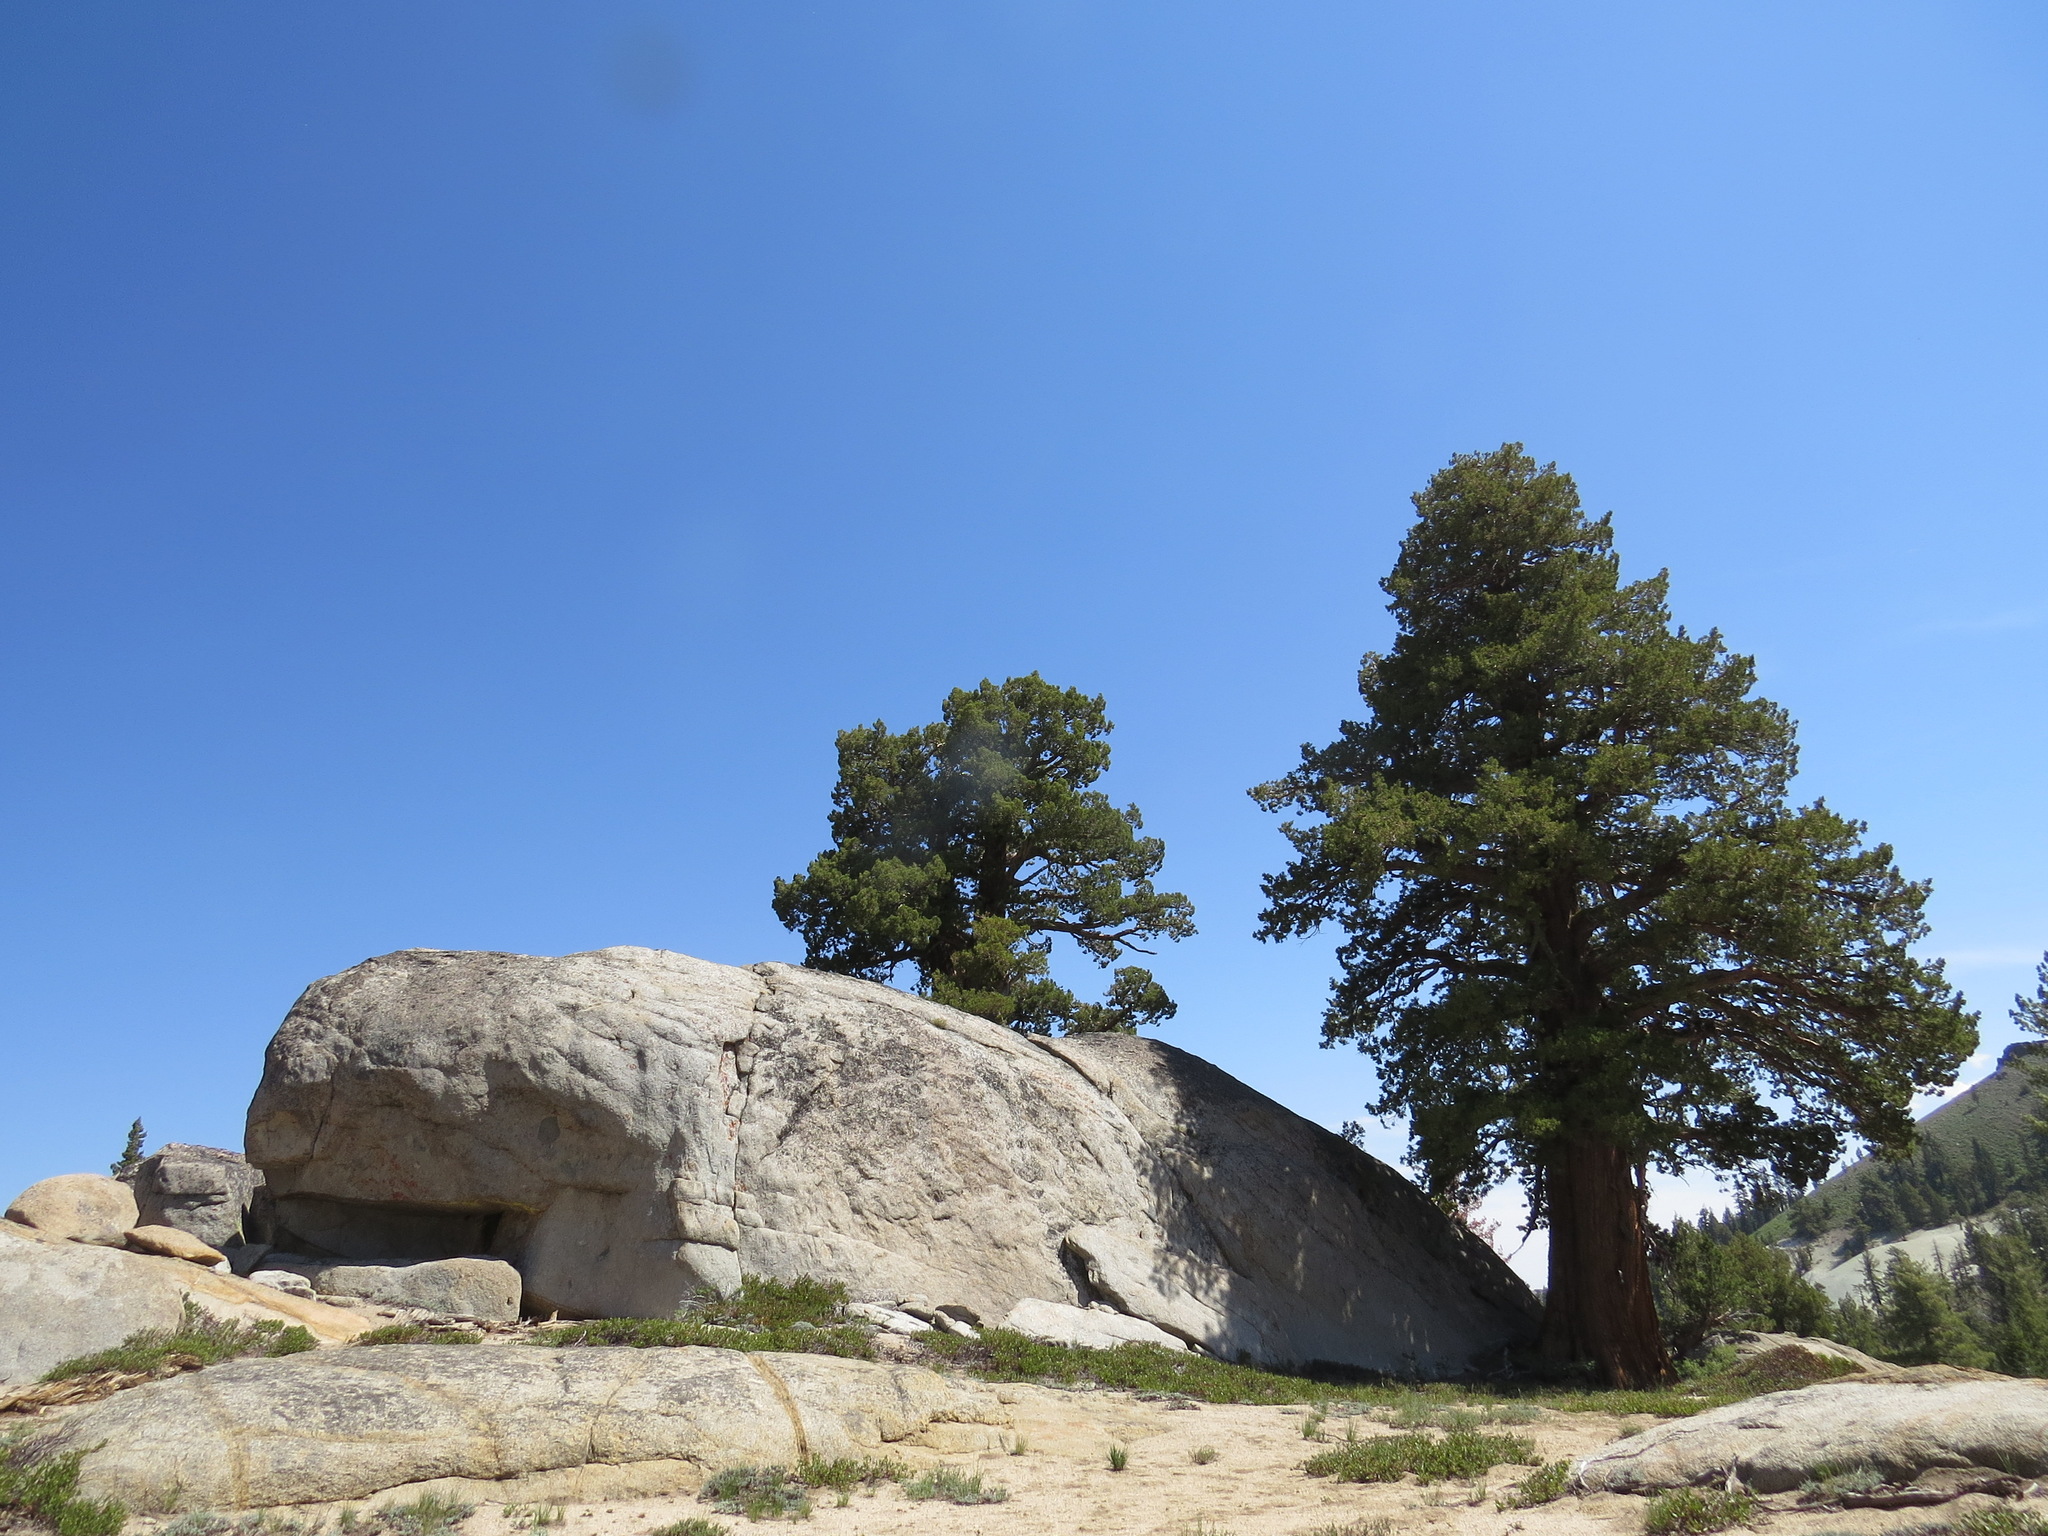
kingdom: Plantae
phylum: Tracheophyta
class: Pinopsida
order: Pinales
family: Cupressaceae
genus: Juniperus
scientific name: Juniperus occidentalis
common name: Western juniper
